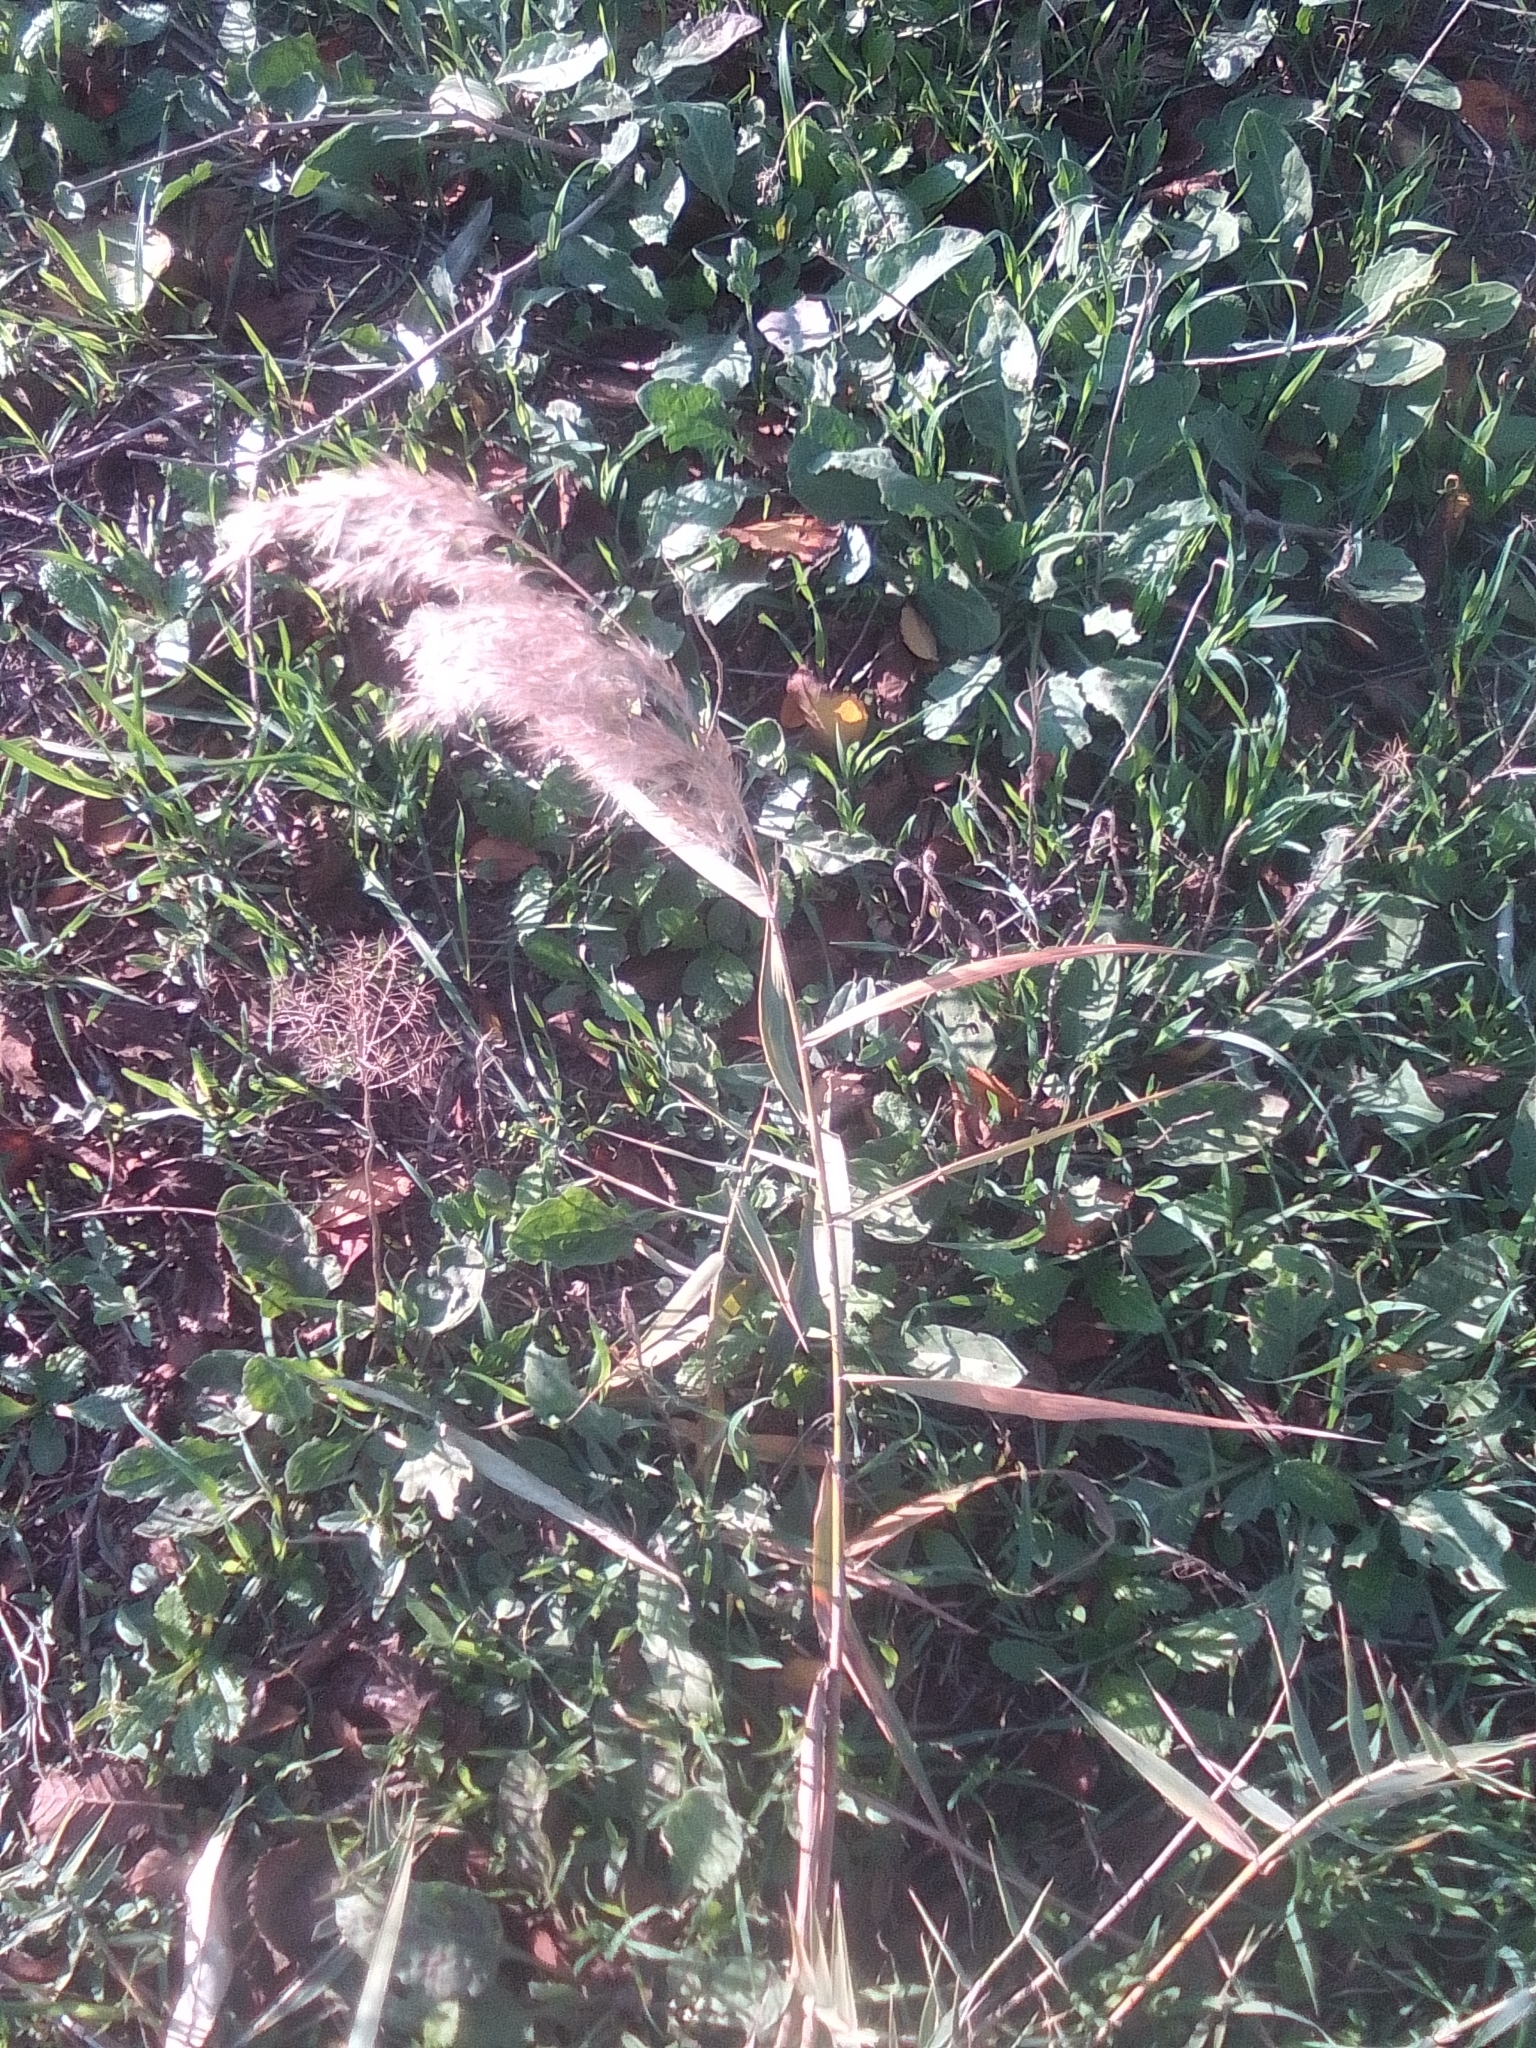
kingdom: Plantae
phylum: Tracheophyta
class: Liliopsida
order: Poales
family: Poaceae
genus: Phragmites
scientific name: Phragmites australis
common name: Common reed
